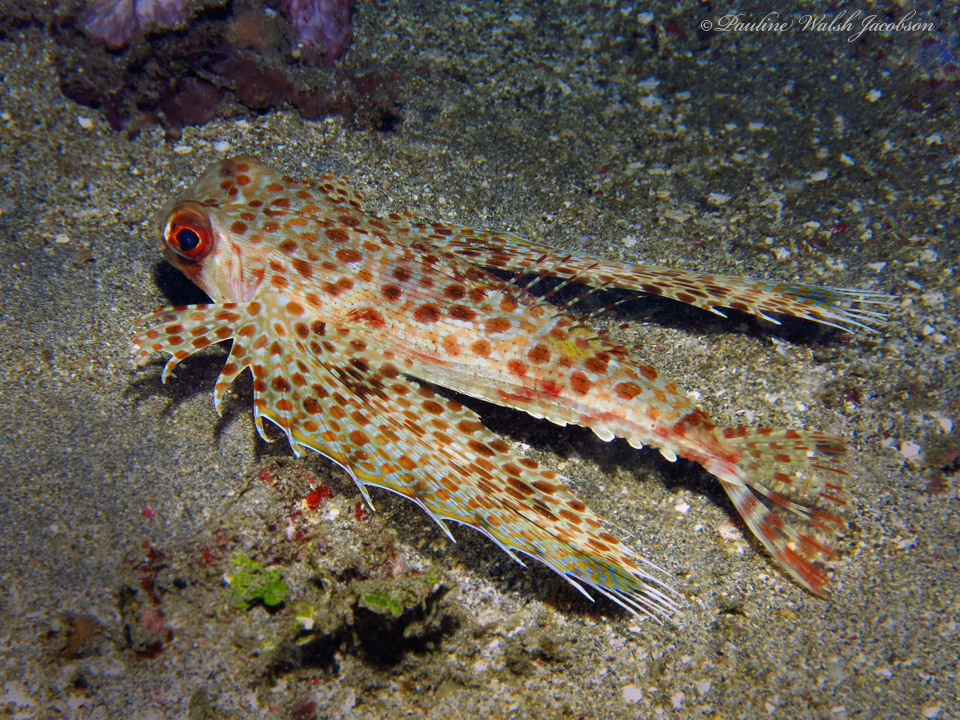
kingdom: Animalia
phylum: Chordata
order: Scorpaeniformes
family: Dactylopteridae
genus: Dactyloptena
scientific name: Dactyloptena orientalis
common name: Flying gurnard
